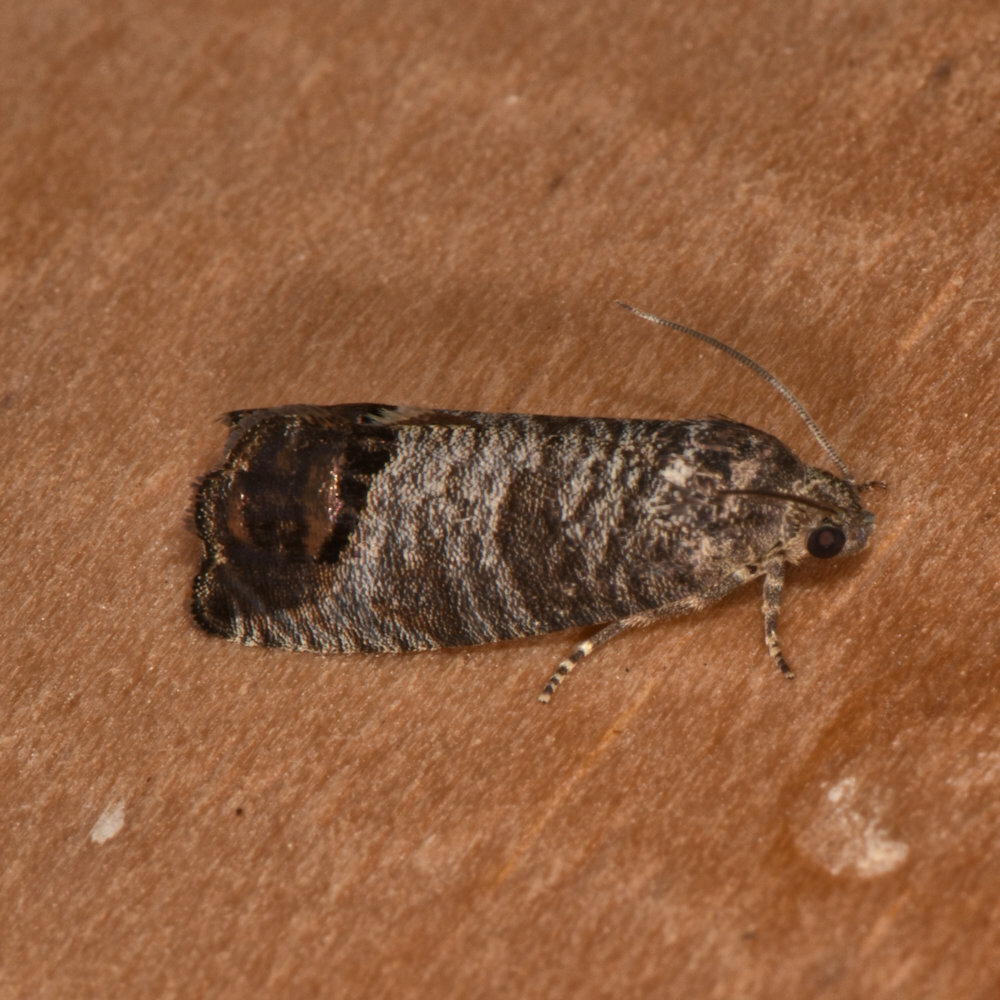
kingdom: Animalia
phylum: Arthropoda
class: Insecta
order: Lepidoptera
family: Tortricidae
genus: Cydia
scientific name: Cydia pomonella
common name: Codling moth
